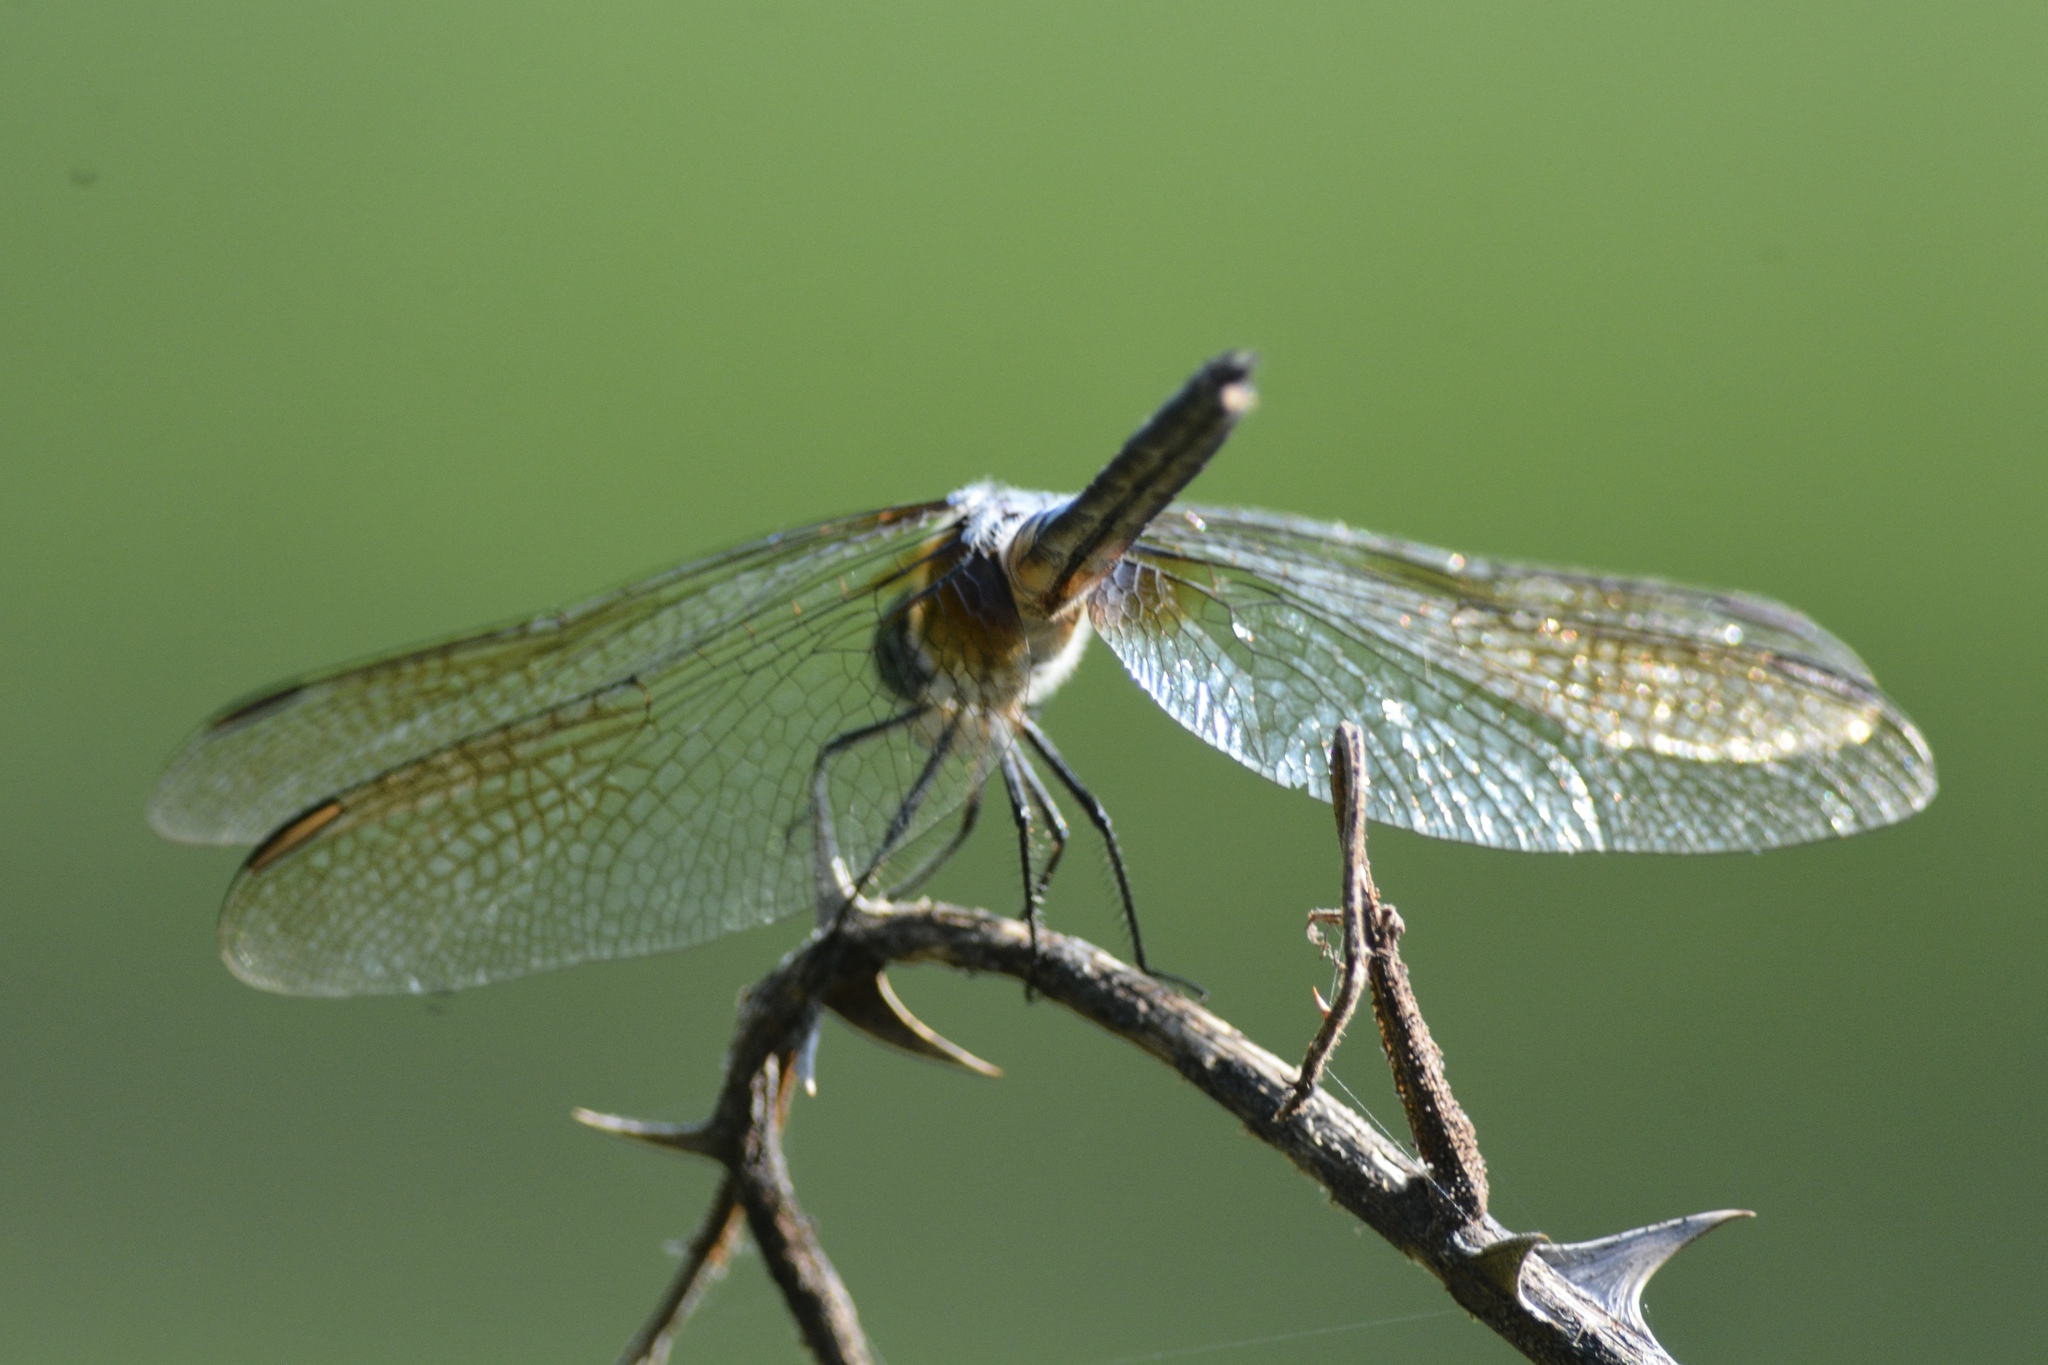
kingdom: Animalia
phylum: Arthropoda
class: Insecta
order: Odonata
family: Libellulidae
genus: Pachydiplax
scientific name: Pachydiplax longipennis
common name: Blue dasher
